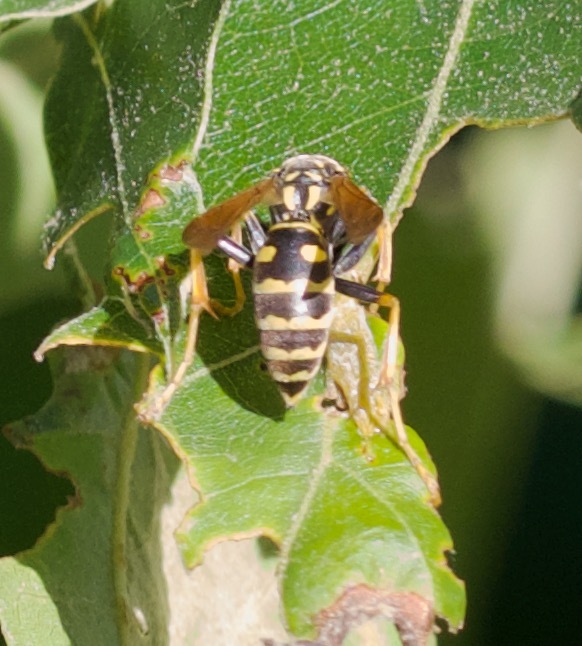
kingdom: Animalia
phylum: Arthropoda
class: Insecta
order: Hymenoptera
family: Eumenidae
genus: Polistes
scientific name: Polistes dominula
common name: Paper wasp
